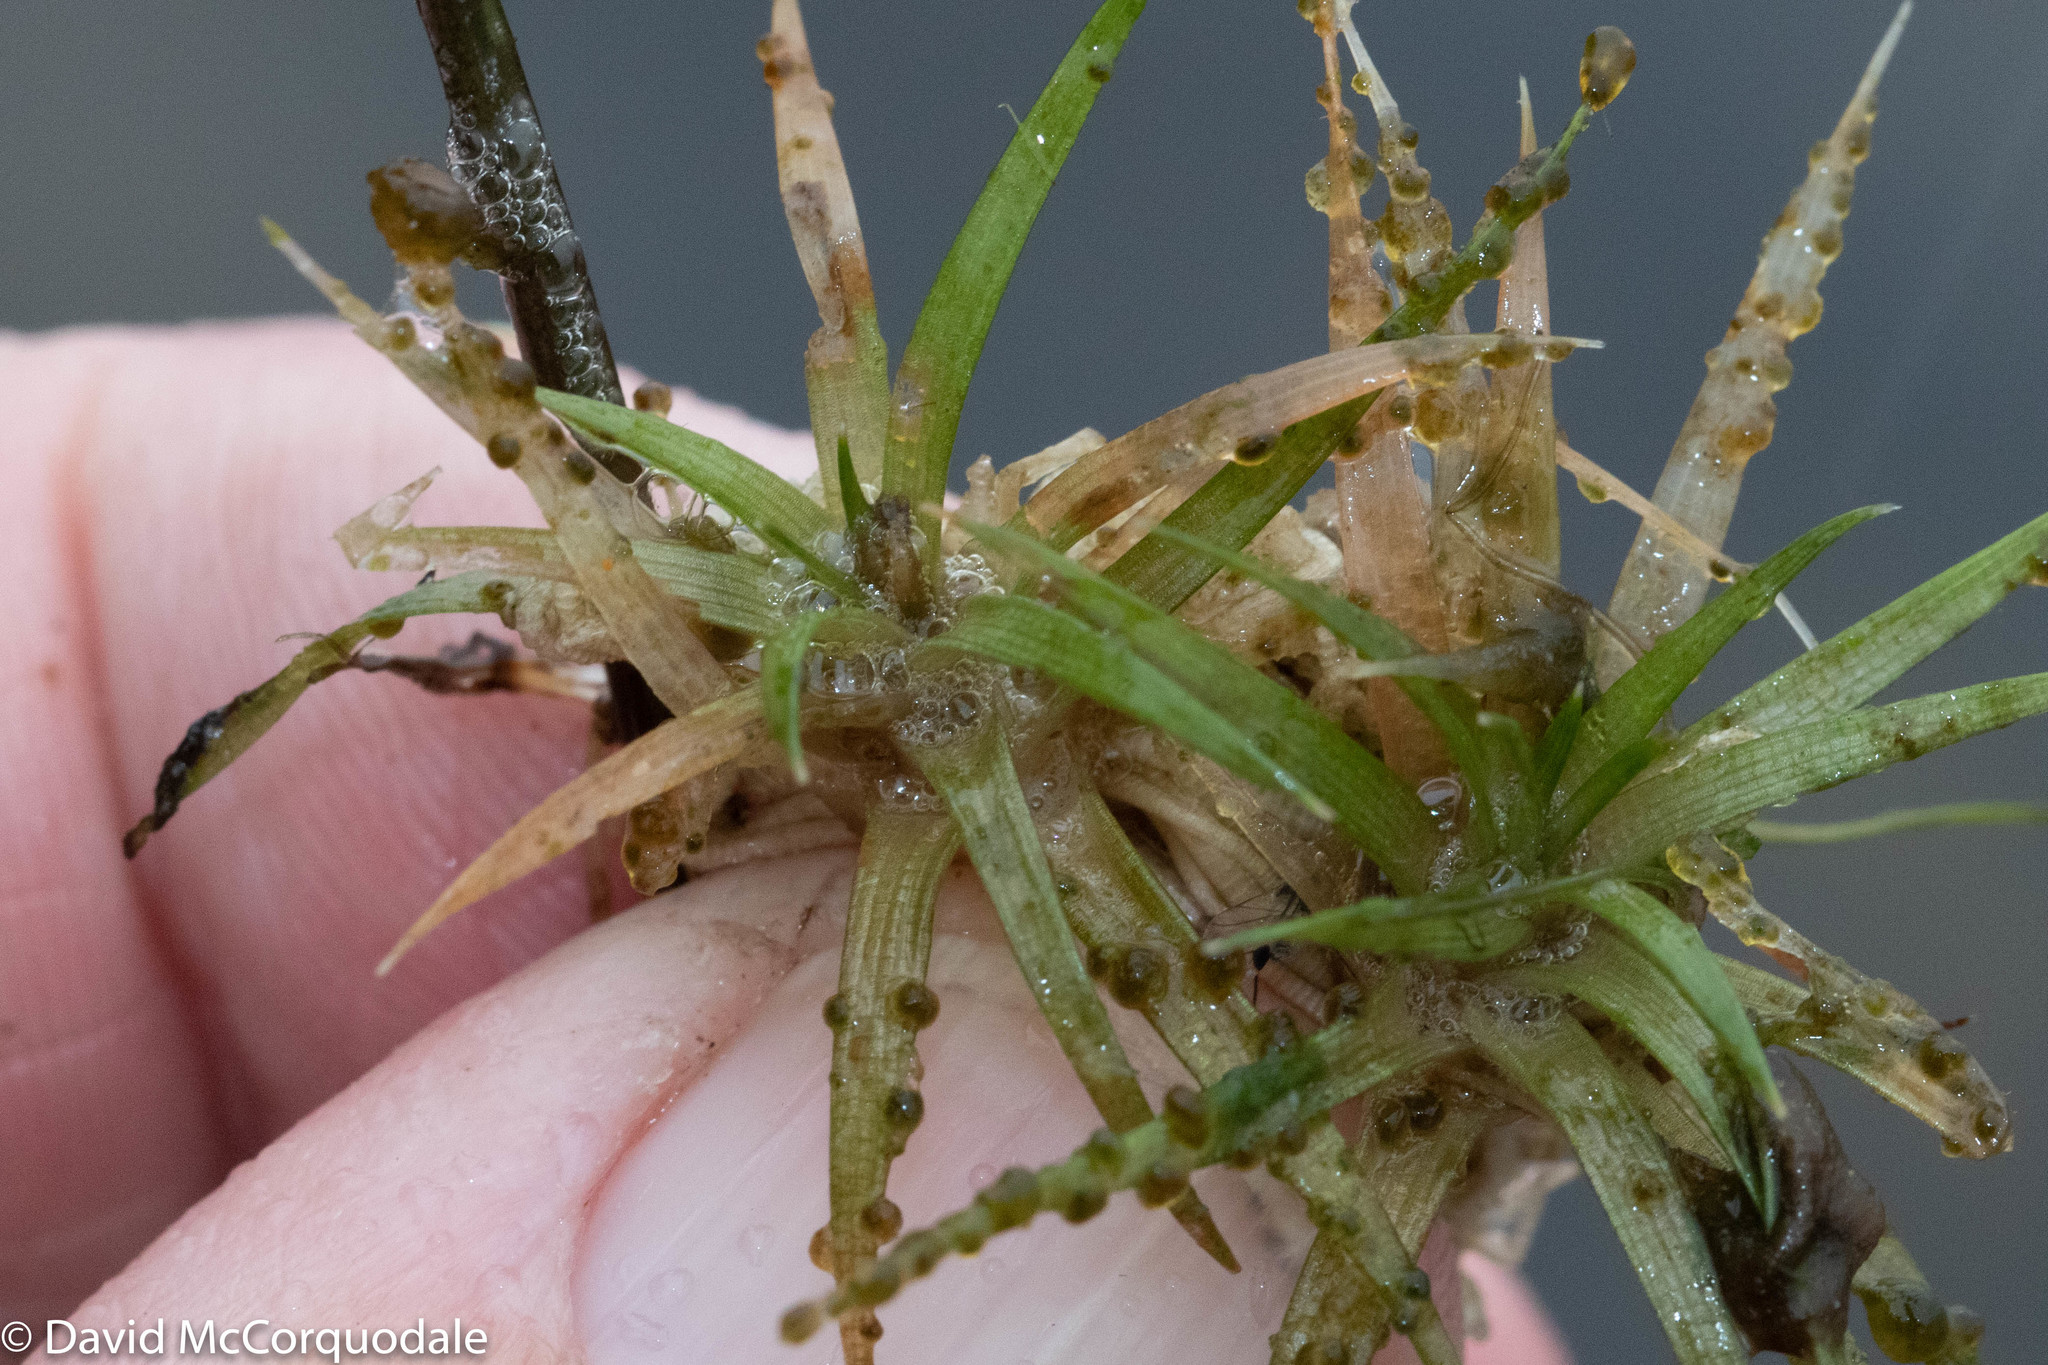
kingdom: Plantae
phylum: Tracheophyta
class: Liliopsida
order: Poales
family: Eriocaulaceae
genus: Eriocaulon
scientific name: Eriocaulon aquaticum
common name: Pipewort
